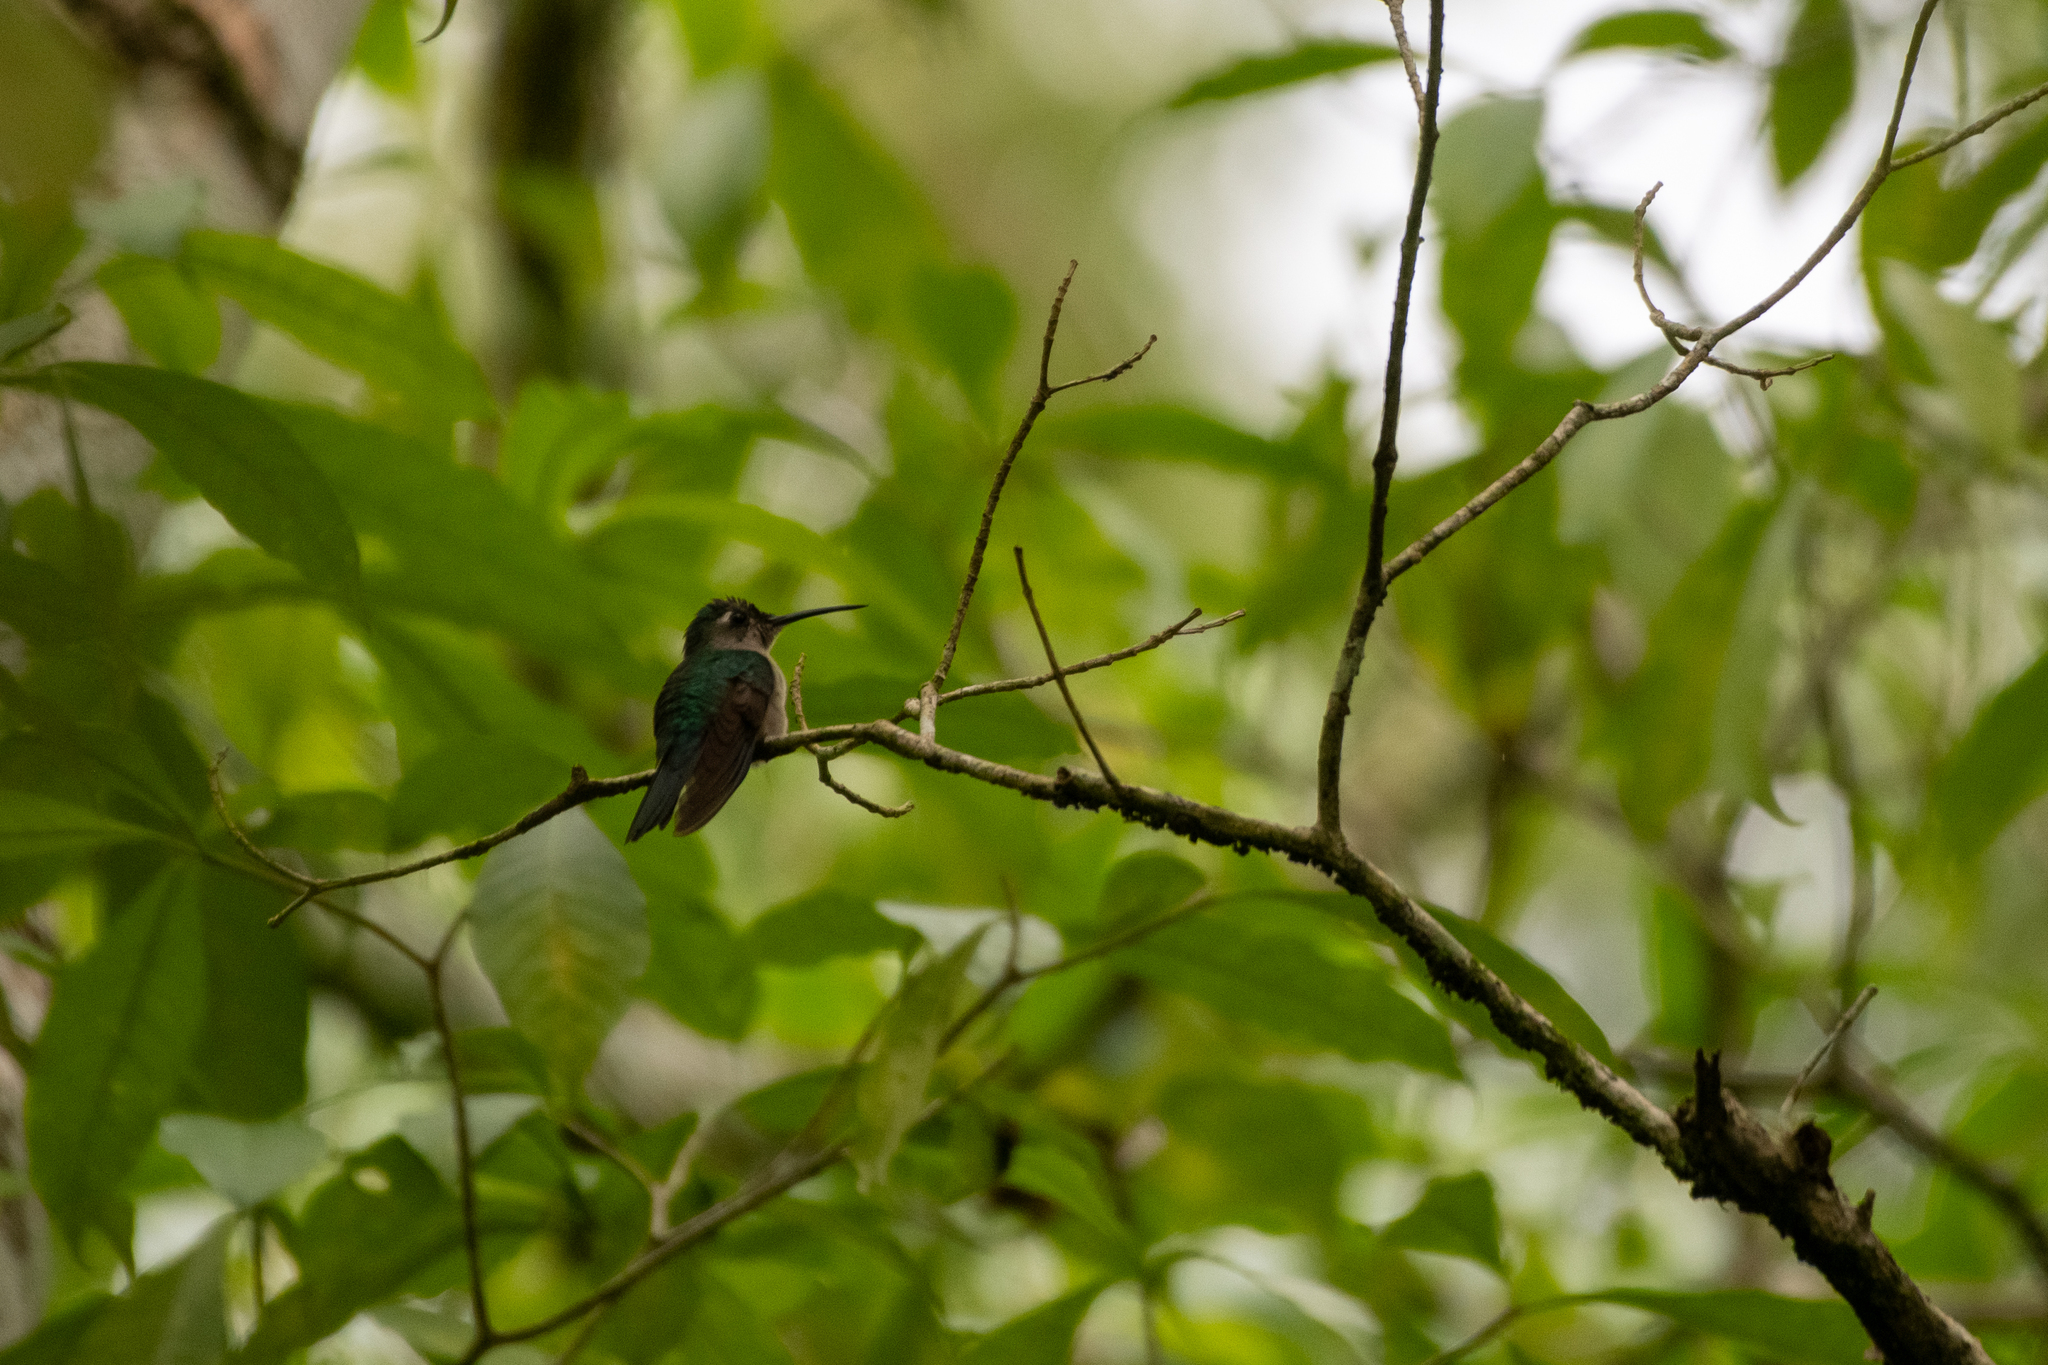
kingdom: Animalia
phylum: Chordata
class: Aves
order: Apodiformes
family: Trochilidae
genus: Pampa
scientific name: Pampa curvipennis
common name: Curve-winged sabrewing
